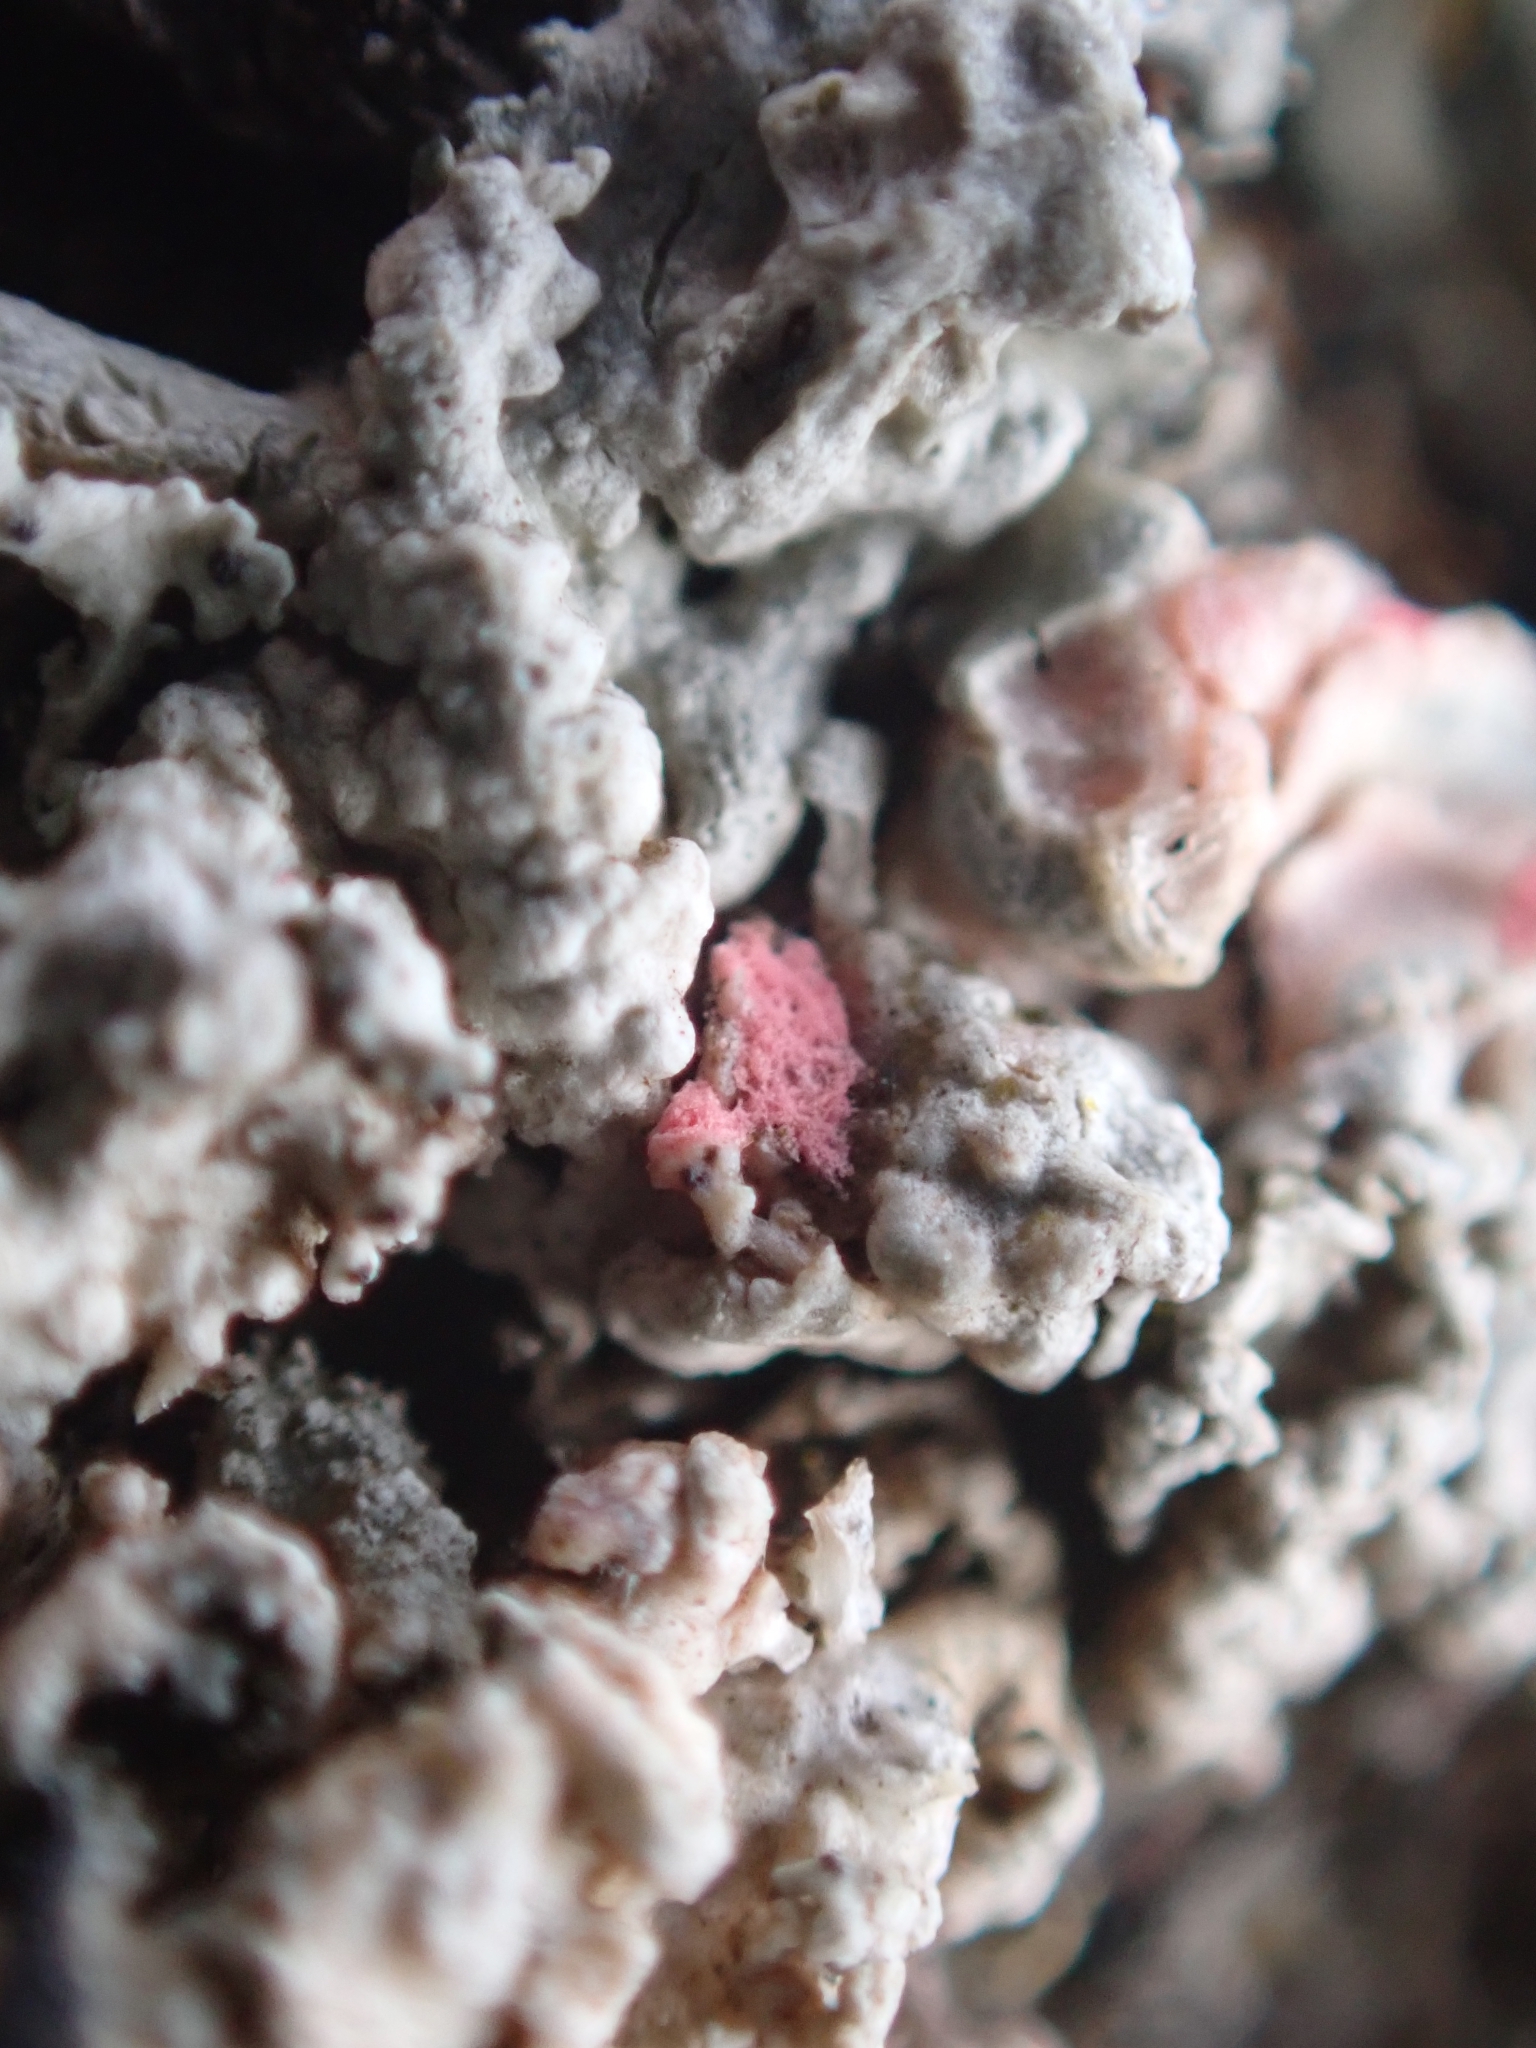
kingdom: Fungi
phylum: Ascomycota
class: Sordariomycetes
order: Hypocreales
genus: Illosporiopsis
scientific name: Illosporiopsis christiansenii
